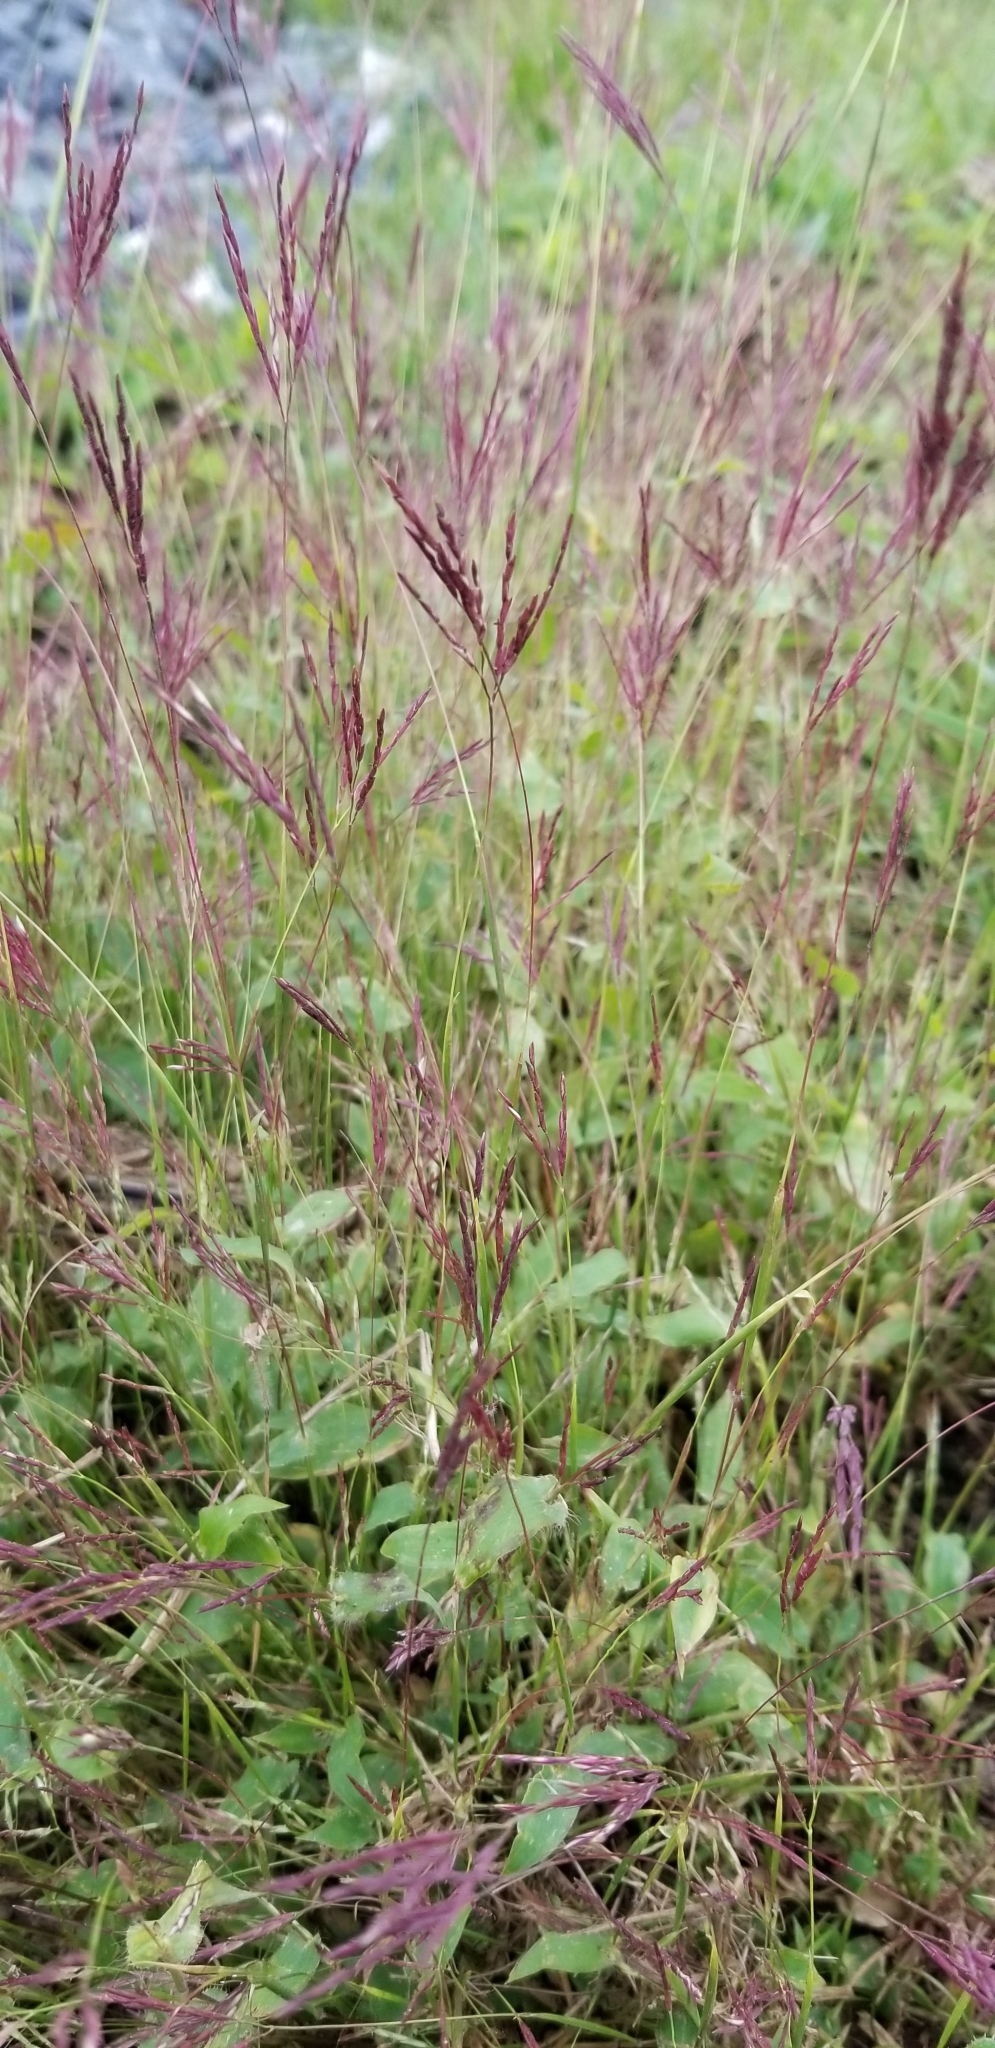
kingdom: Plantae
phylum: Tracheophyta
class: Liliopsida
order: Poales
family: Poaceae
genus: Arthraxon
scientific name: Arthraxon hispidus
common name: Small carpgrass
